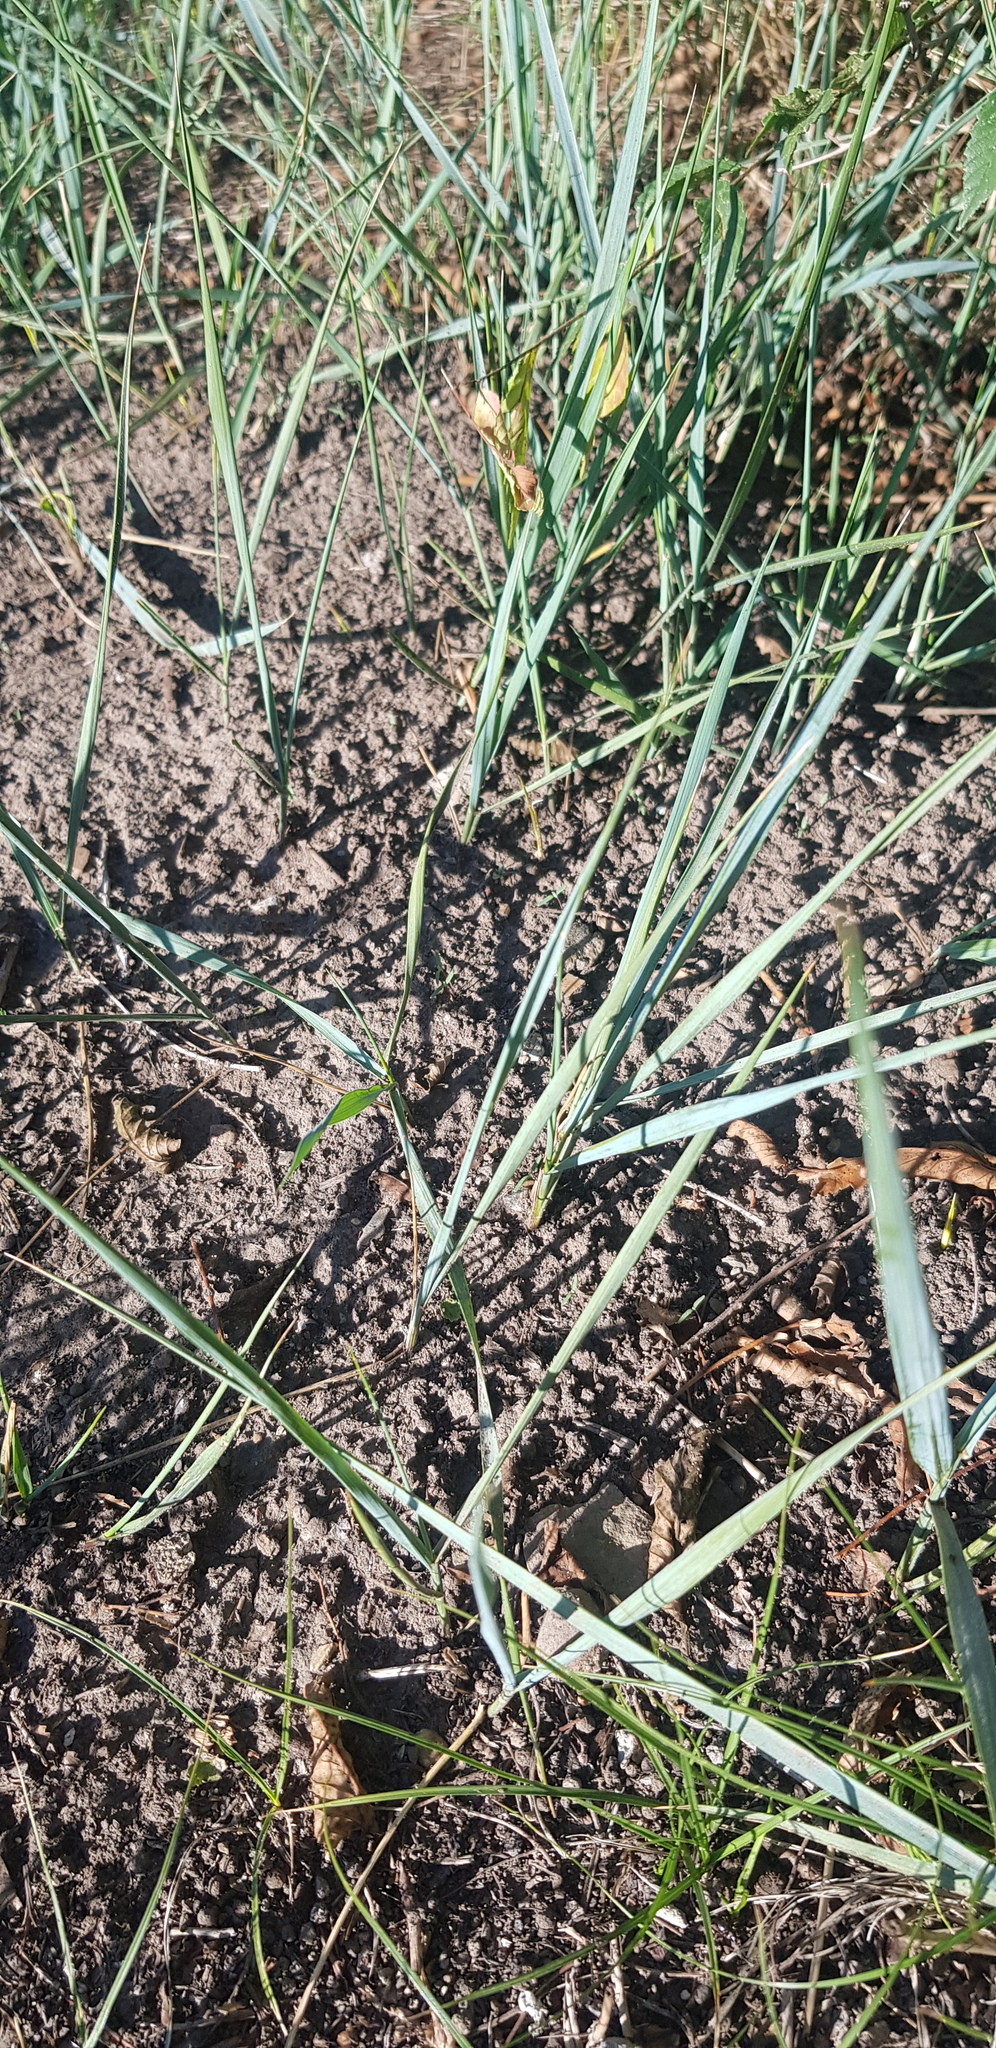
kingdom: Plantae
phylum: Tracheophyta
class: Liliopsida
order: Poales
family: Poaceae
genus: Leymus
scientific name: Leymus chinensis
